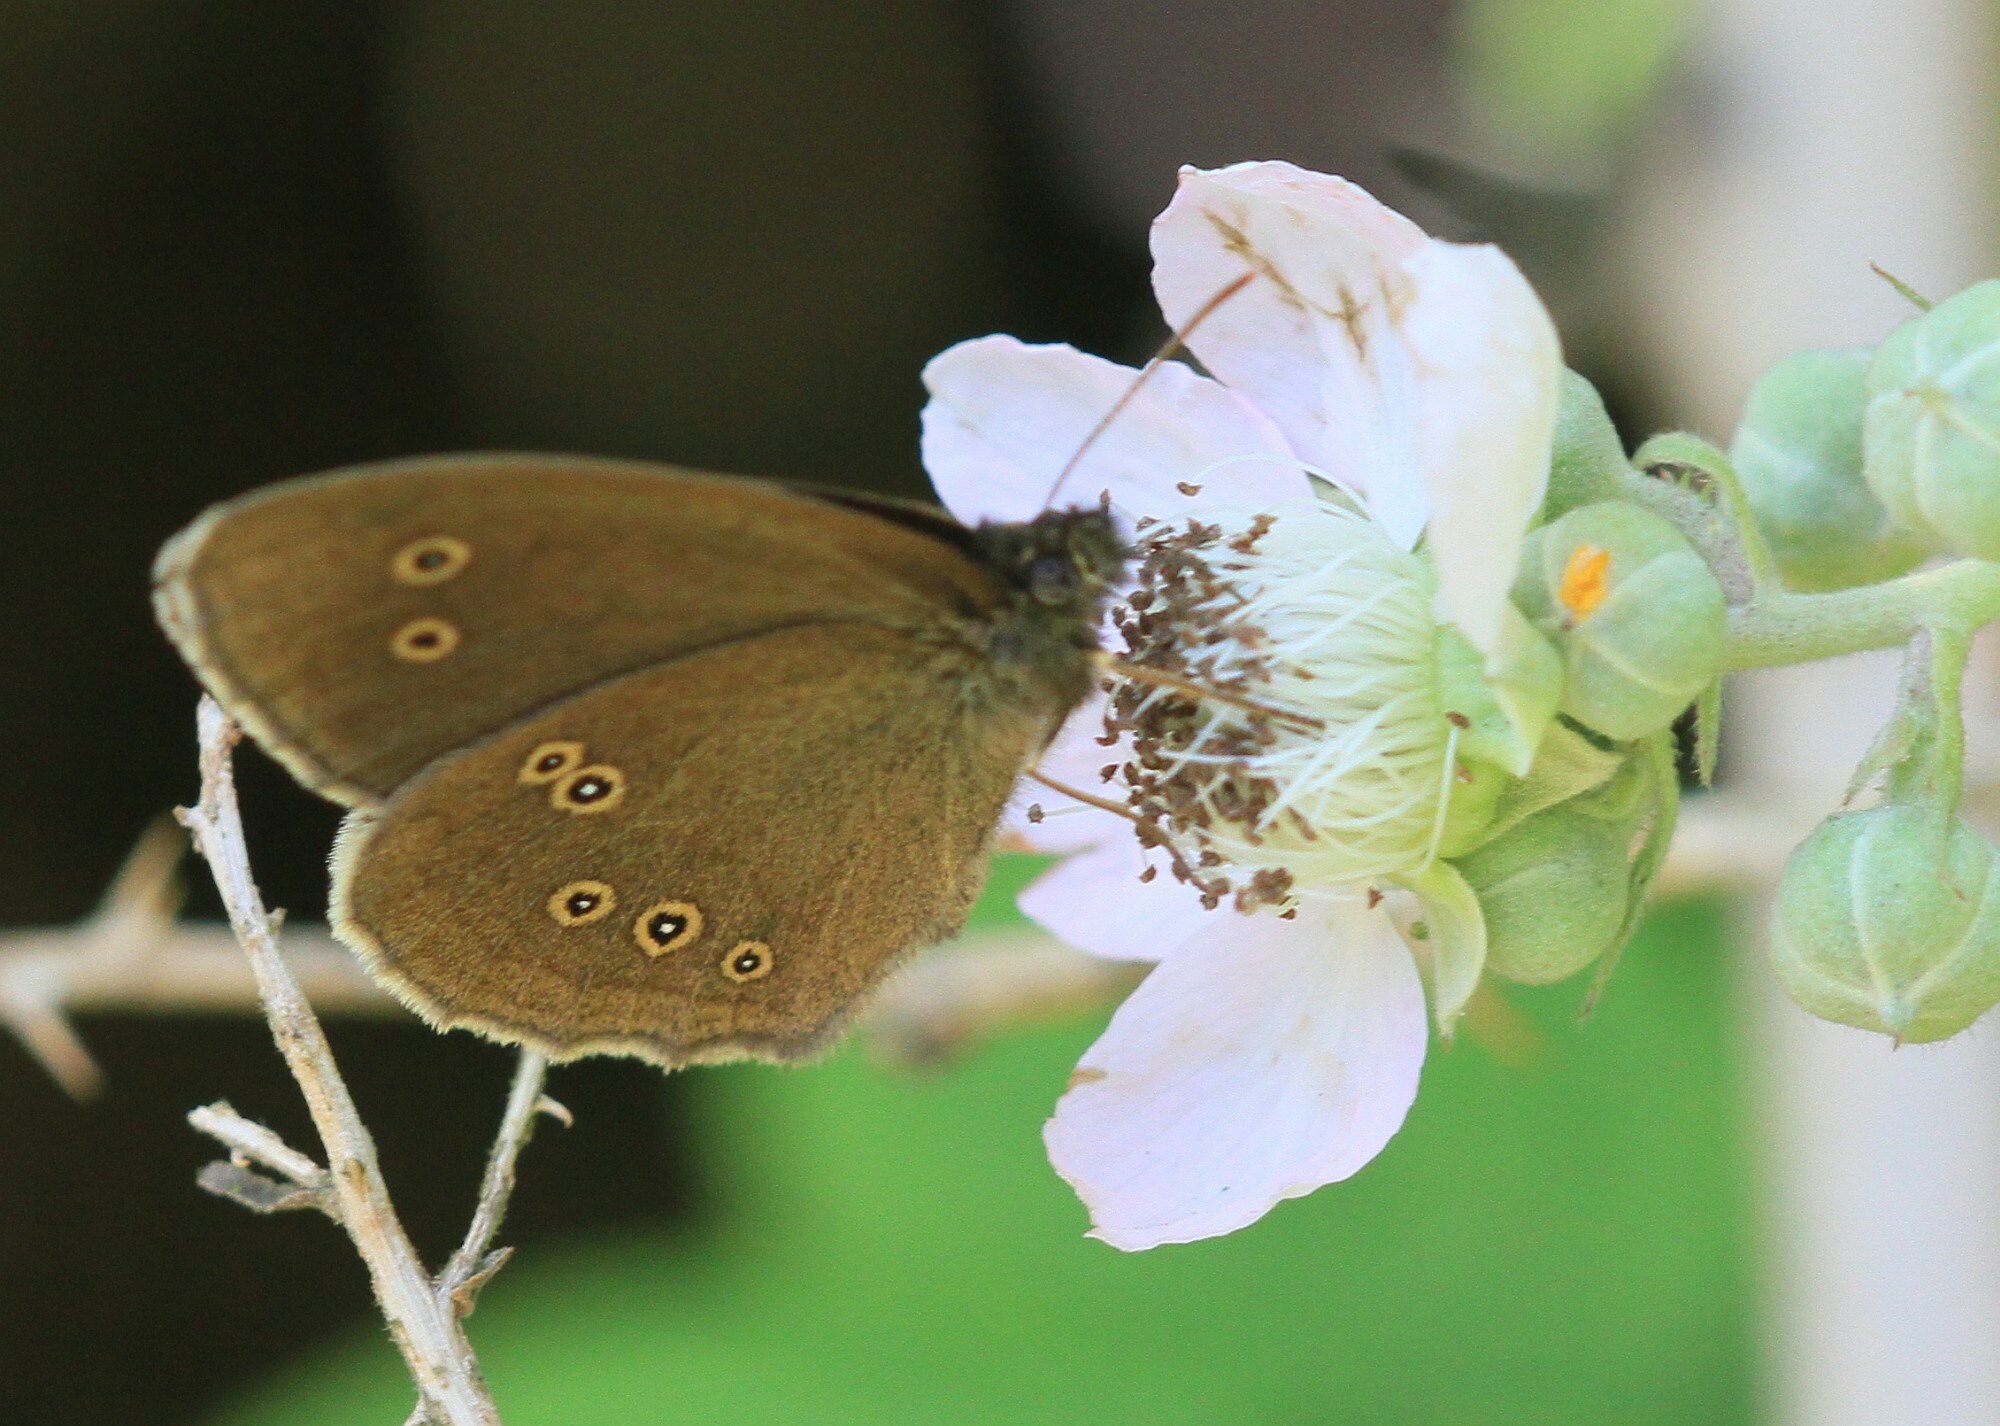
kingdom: Animalia
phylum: Arthropoda
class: Insecta
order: Lepidoptera
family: Nymphalidae
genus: Aphantopus
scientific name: Aphantopus hyperantus
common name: Ringlet
